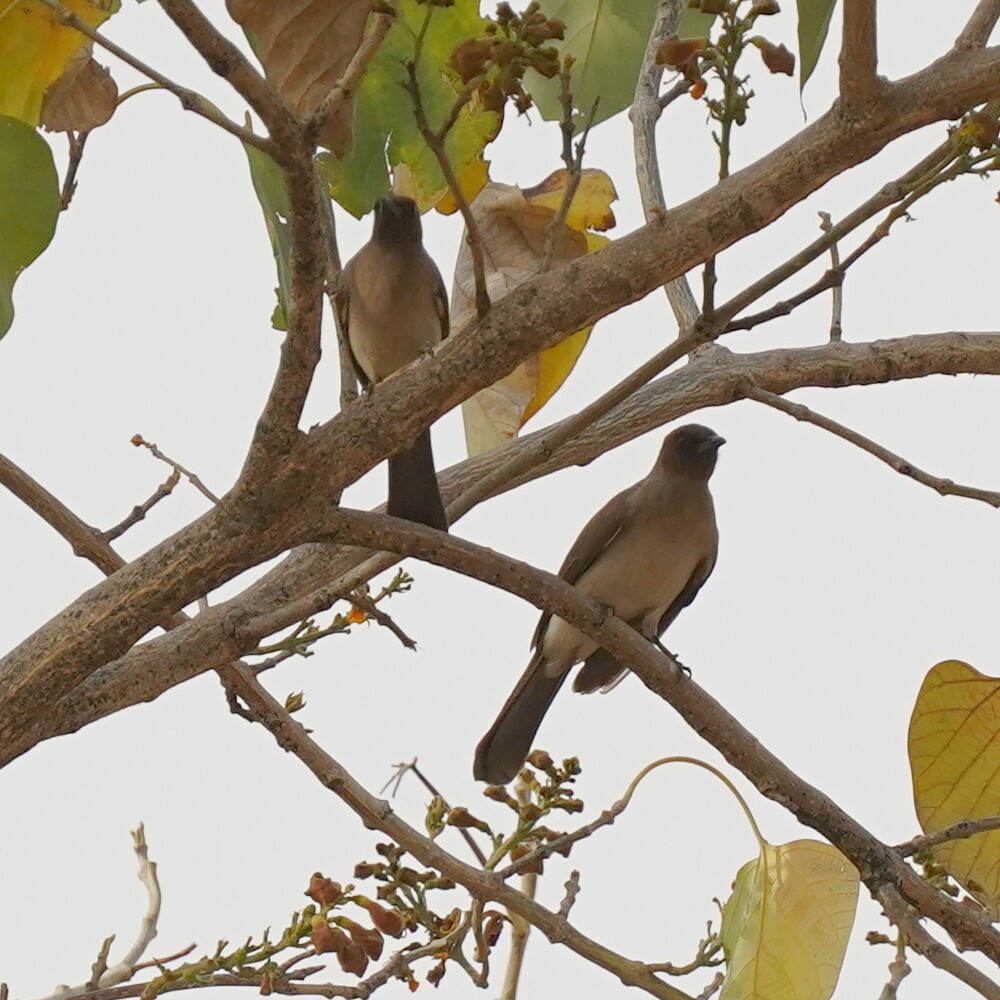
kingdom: Animalia
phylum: Chordata
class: Aves
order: Passeriformes
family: Pycnonotidae
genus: Pycnonotus
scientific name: Pycnonotus barbatus
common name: Common bulbul
